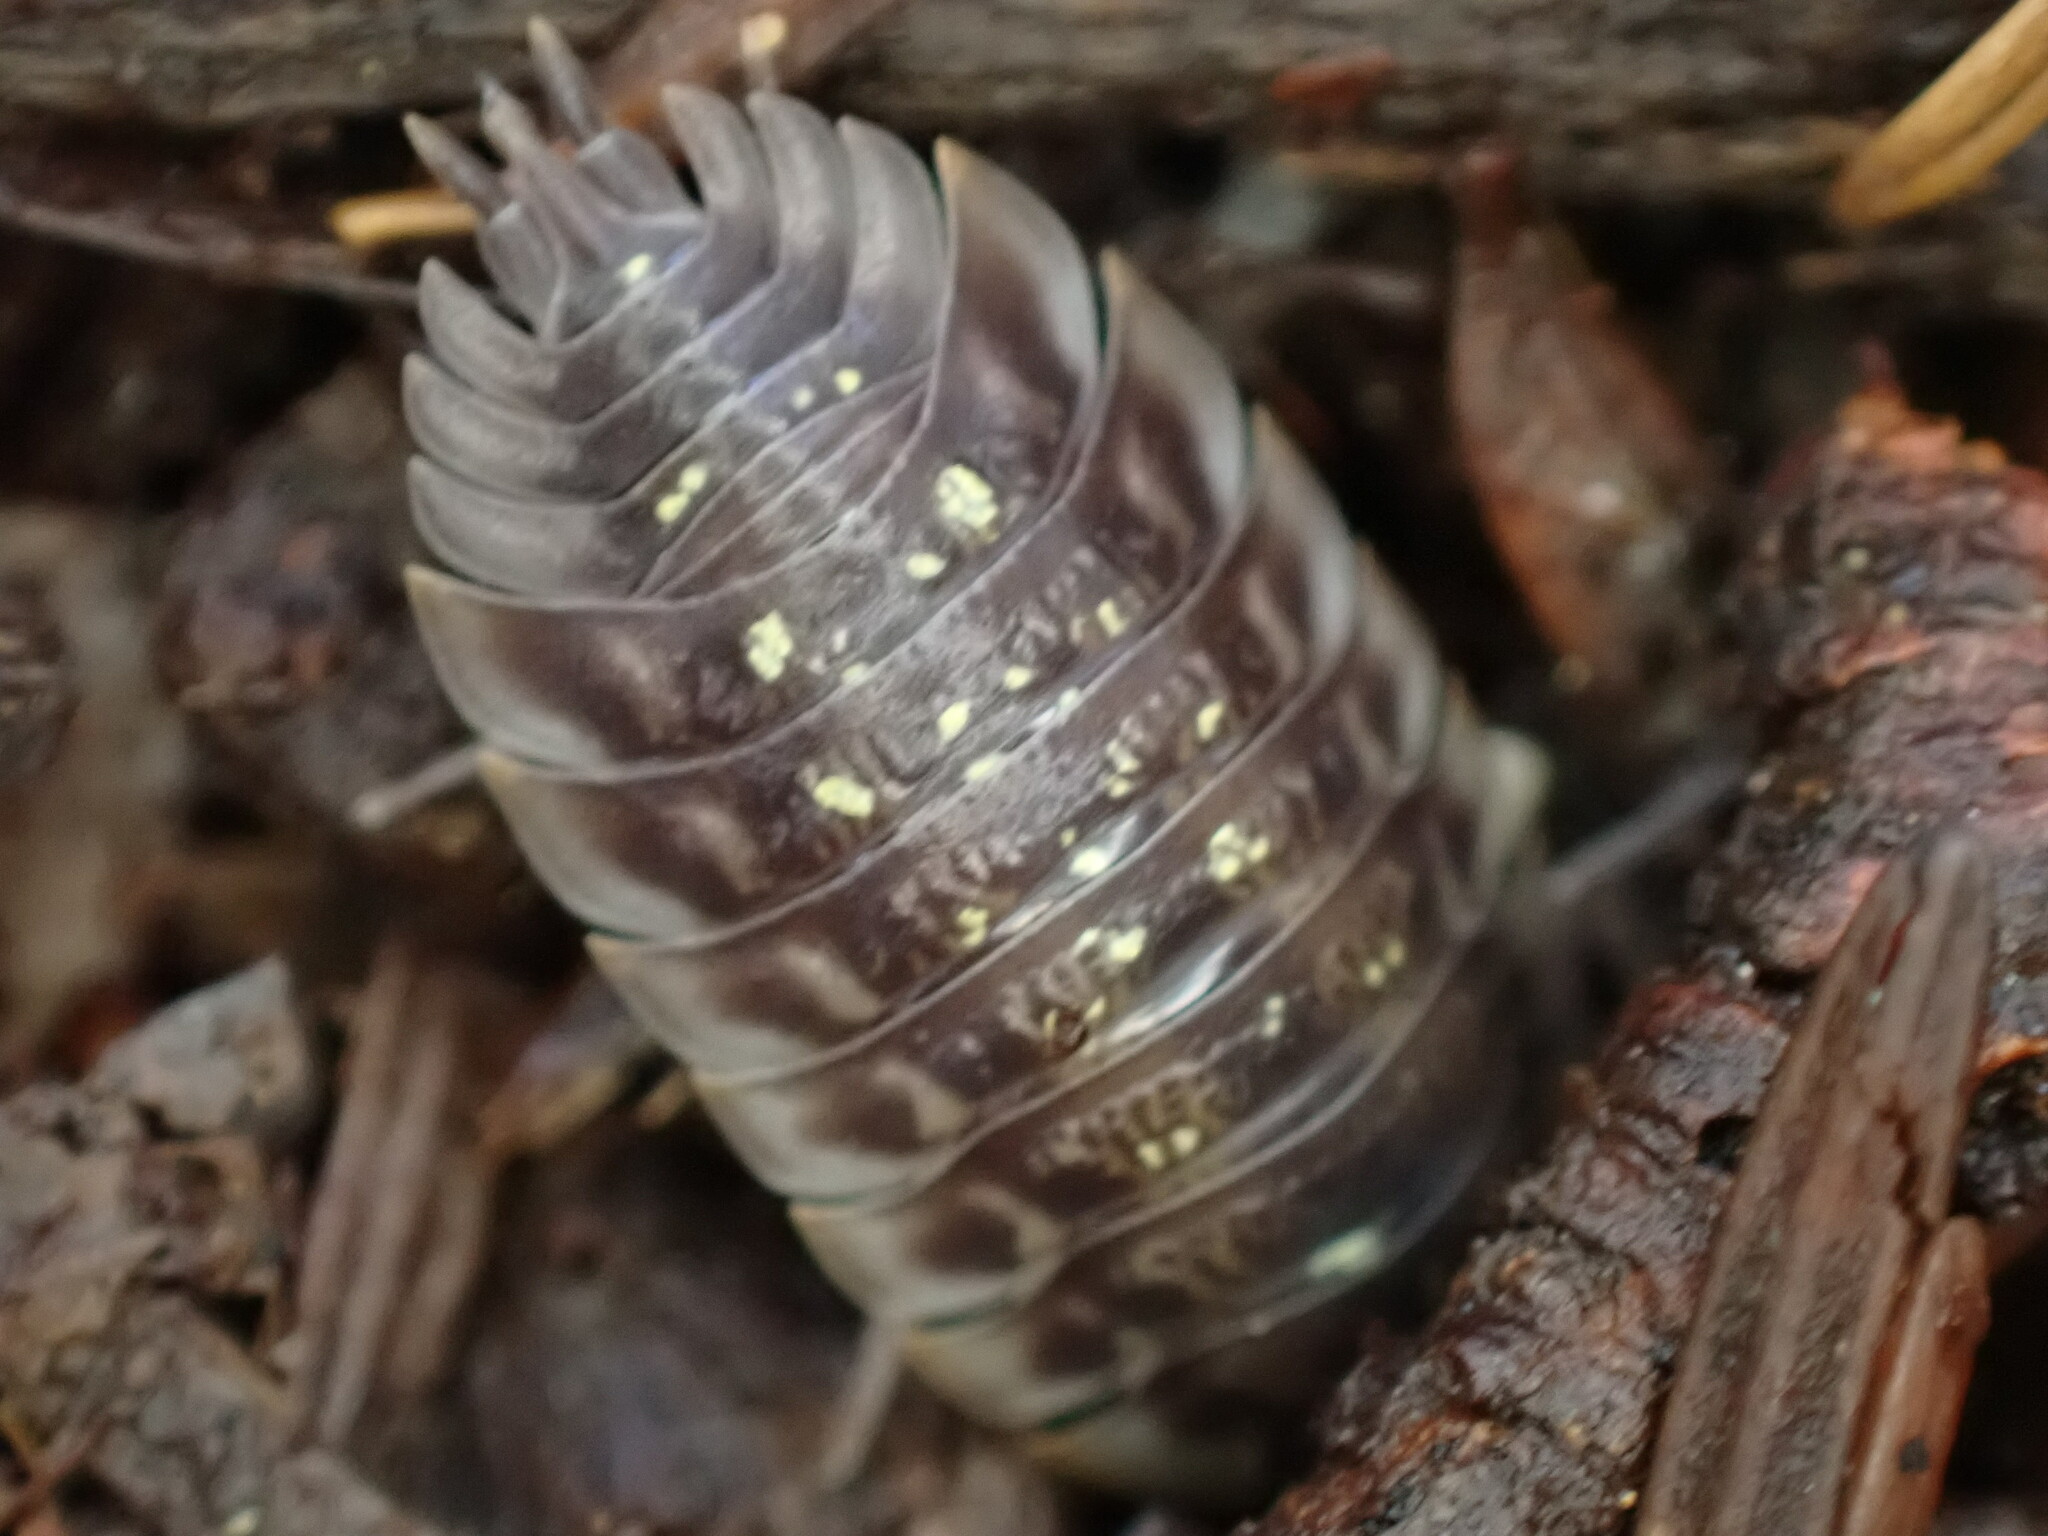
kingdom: Animalia
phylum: Arthropoda
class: Malacostraca
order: Isopoda
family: Oniscidae
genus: Oniscus
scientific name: Oniscus asellus
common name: Common shiny woodlouse
